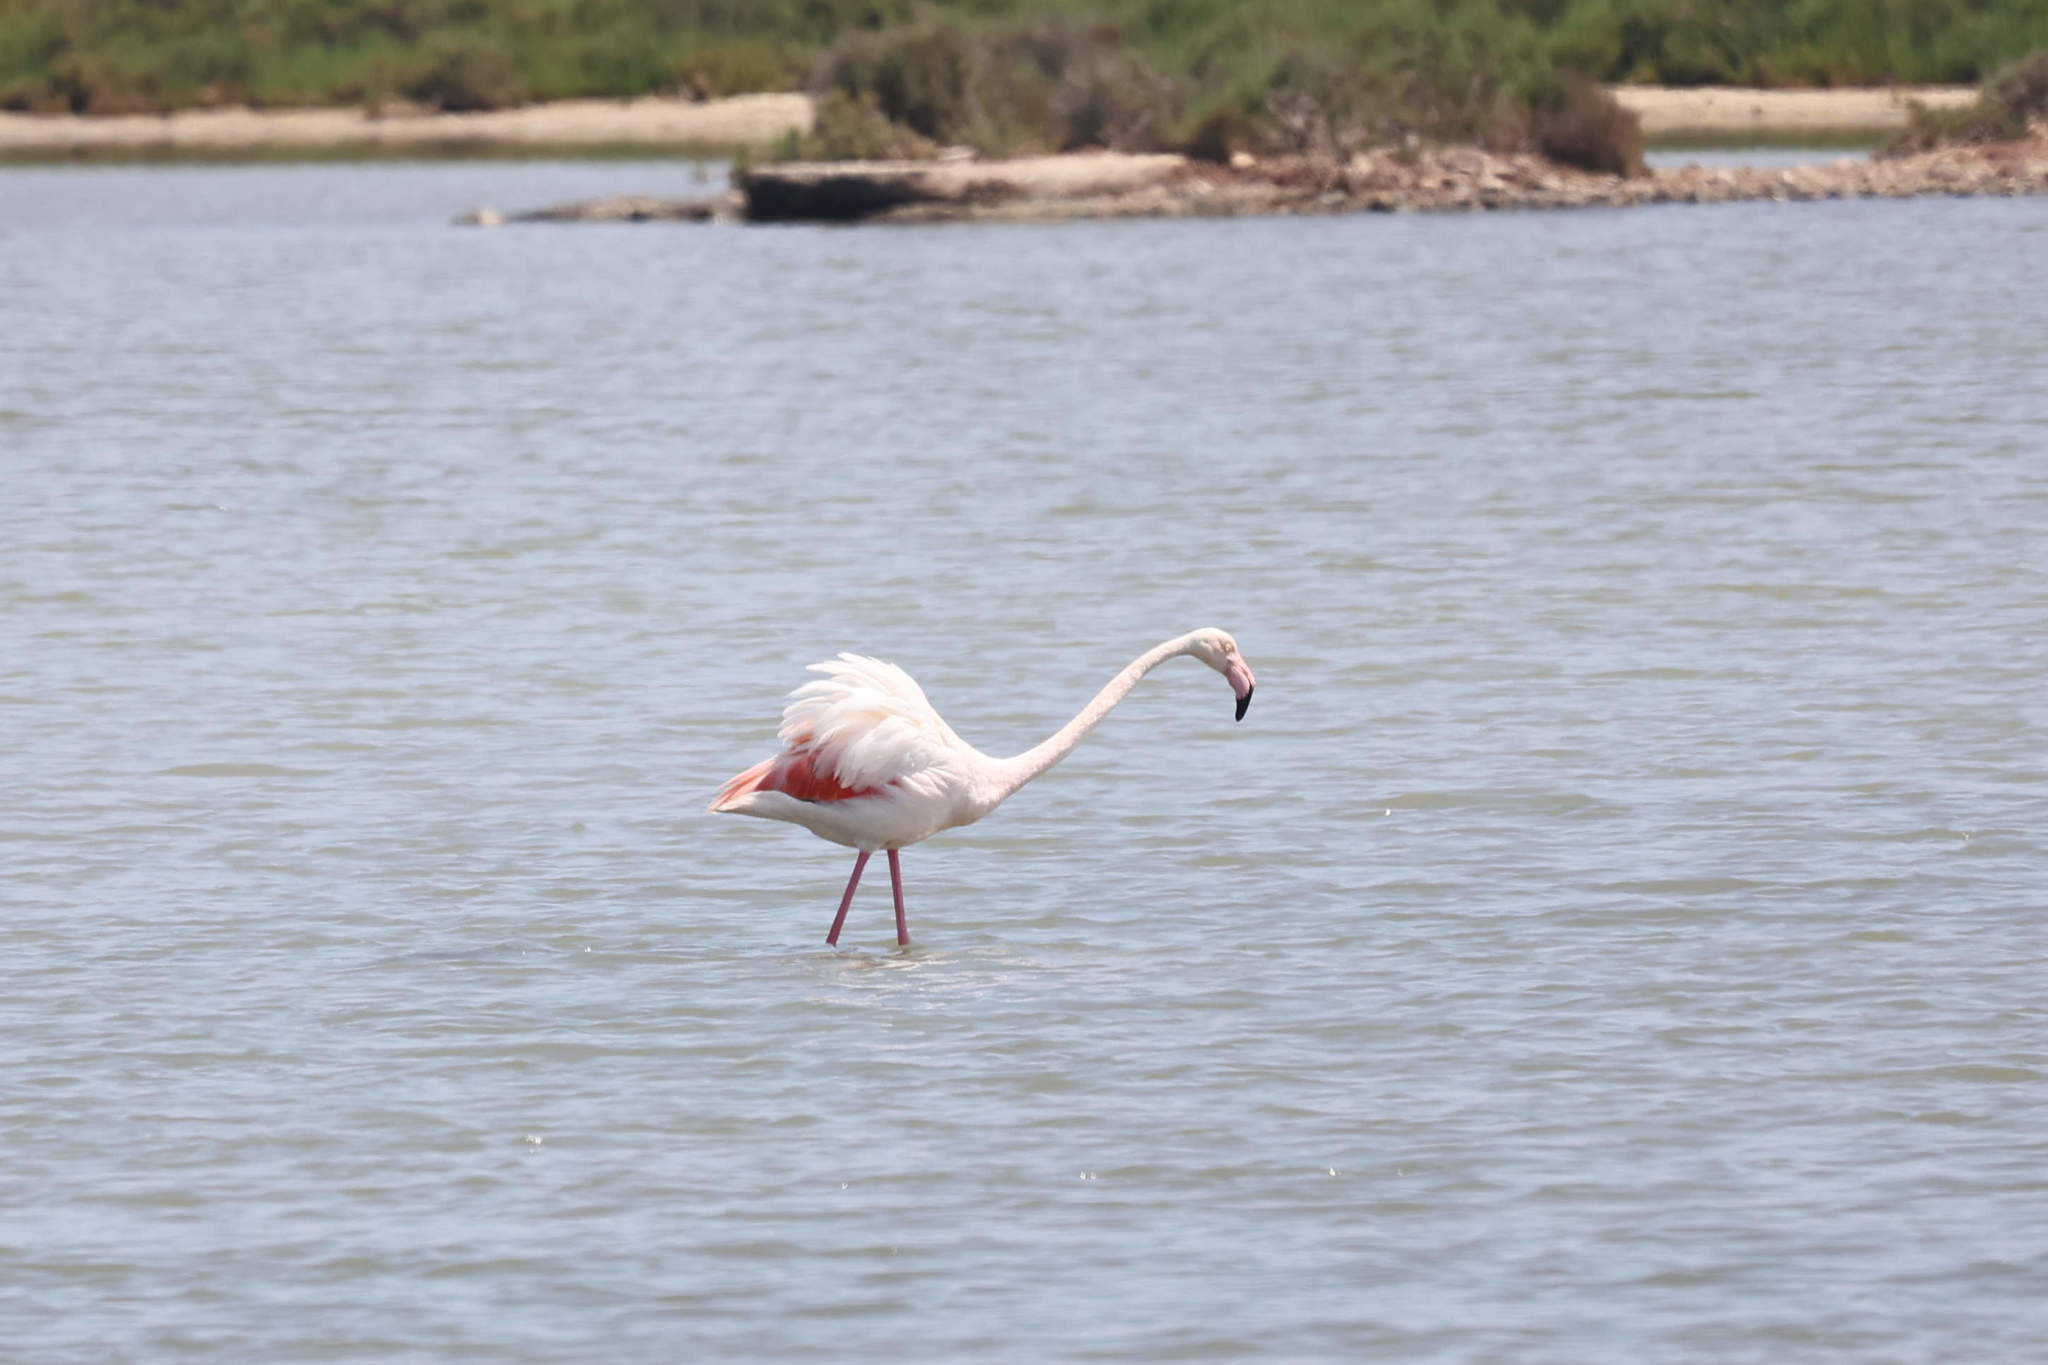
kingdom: Animalia
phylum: Chordata
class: Aves
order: Phoenicopteriformes
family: Phoenicopteridae
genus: Phoenicopterus
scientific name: Phoenicopterus roseus
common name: Greater flamingo
